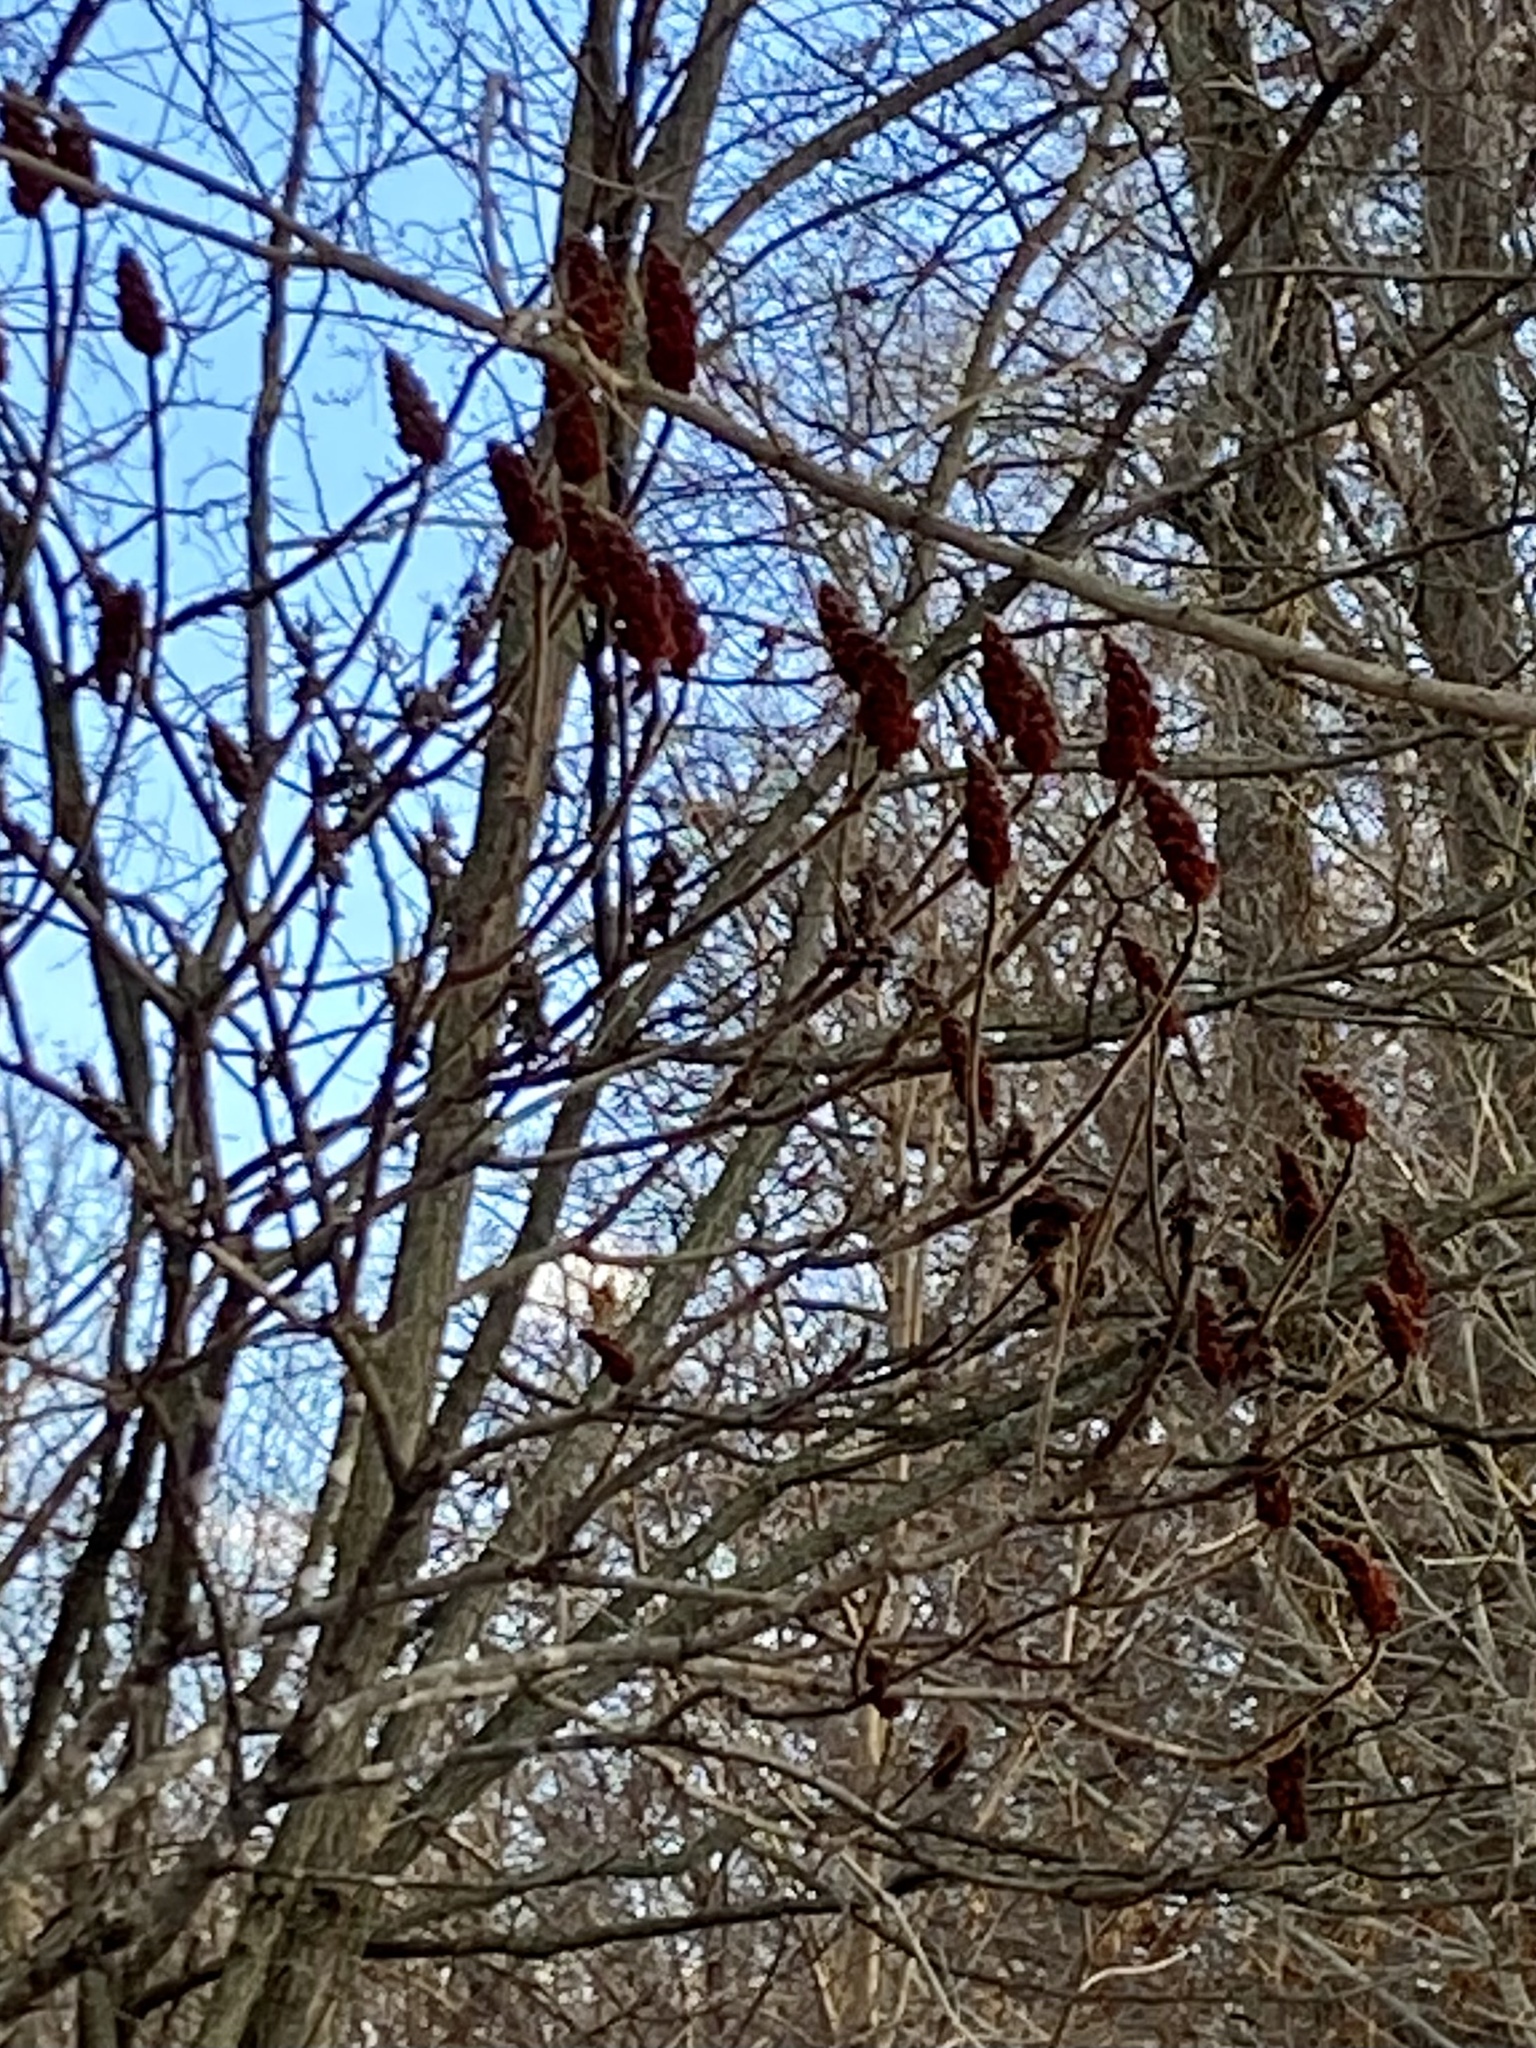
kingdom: Plantae
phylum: Tracheophyta
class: Magnoliopsida
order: Sapindales
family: Anacardiaceae
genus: Rhus
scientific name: Rhus typhina
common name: Staghorn sumac
